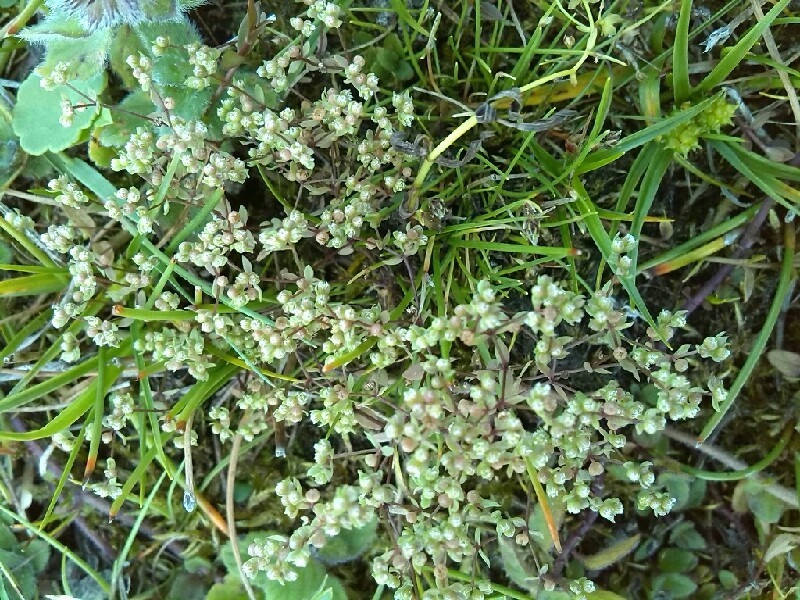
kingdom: Plantae
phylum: Tracheophyta
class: Magnoliopsida
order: Malpighiales
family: Linaceae
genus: Radiola
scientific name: Radiola linoides
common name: Allseed
